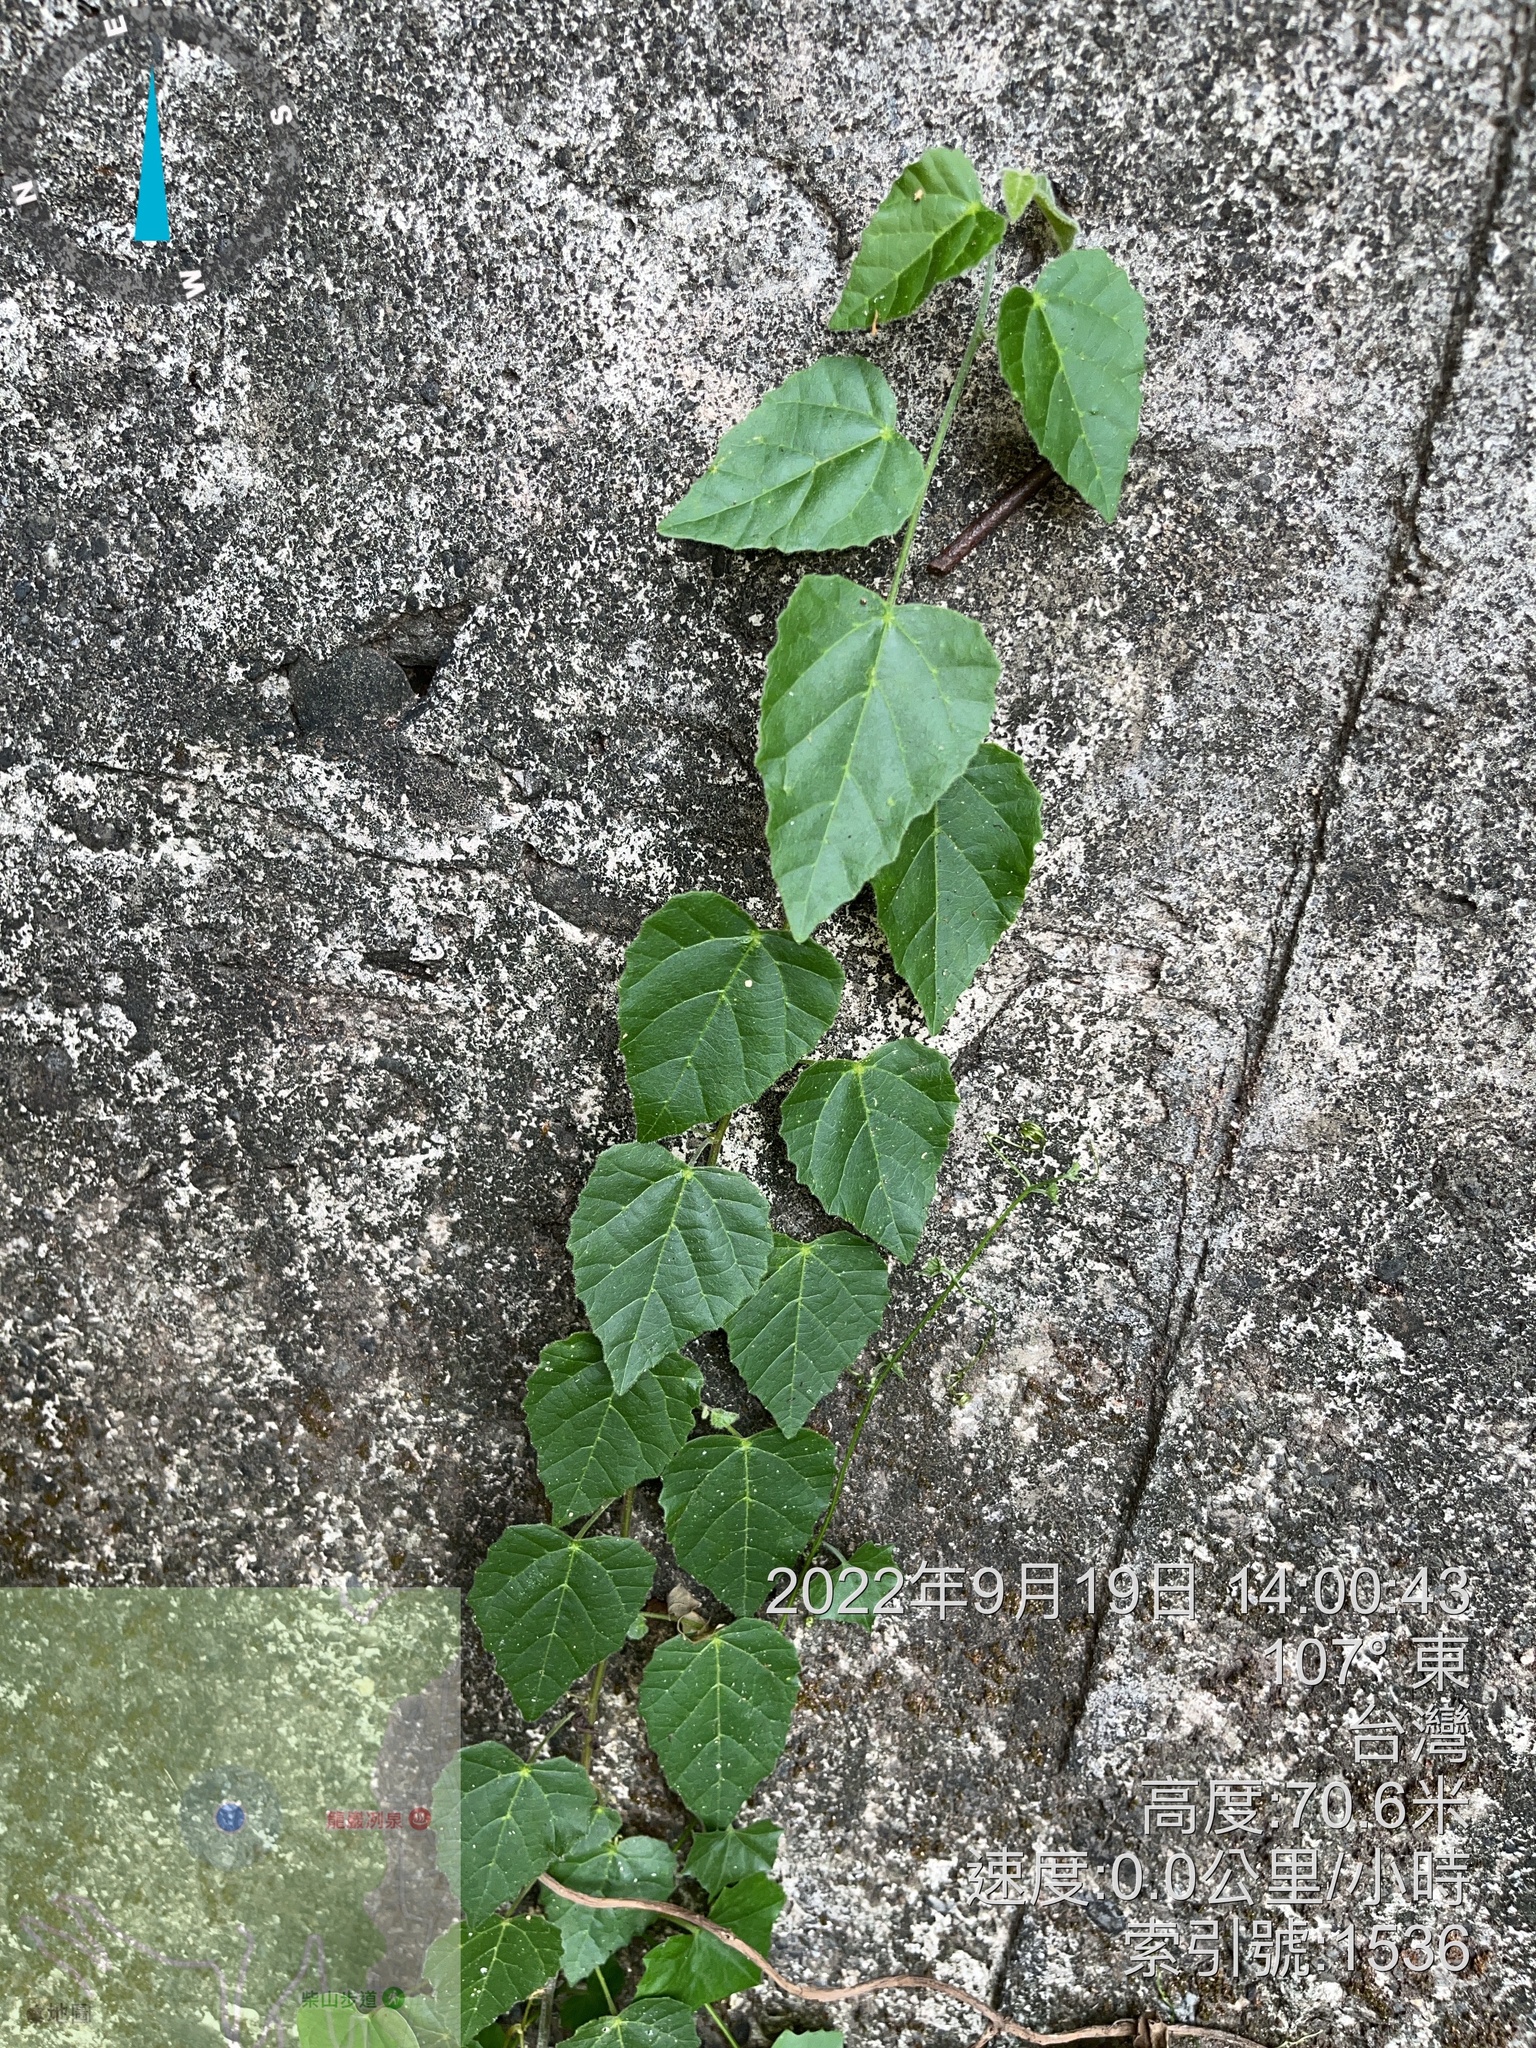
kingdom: Plantae
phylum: Tracheophyta
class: Magnoliopsida
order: Vitales
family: Vitaceae
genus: Cissus
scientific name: Cissus verticillata
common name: Princess vine
